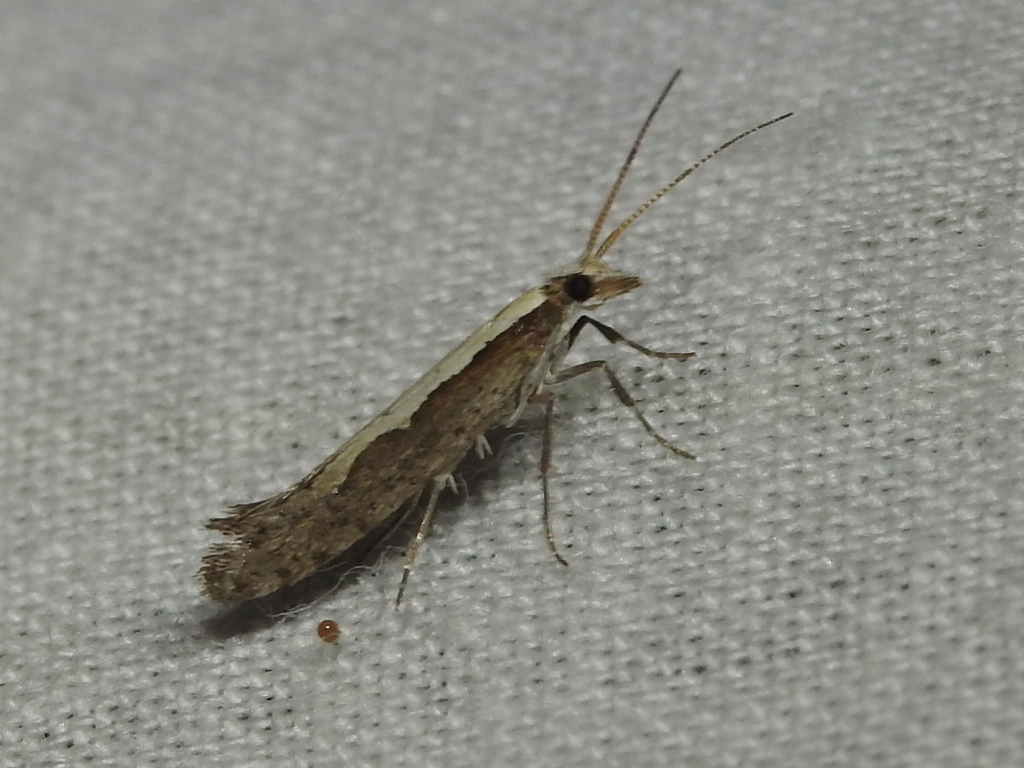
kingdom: Animalia
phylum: Arthropoda
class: Insecta
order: Lepidoptera
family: Plutellidae
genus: Plutella
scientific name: Plutella xylostella
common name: Diamond-back moth
